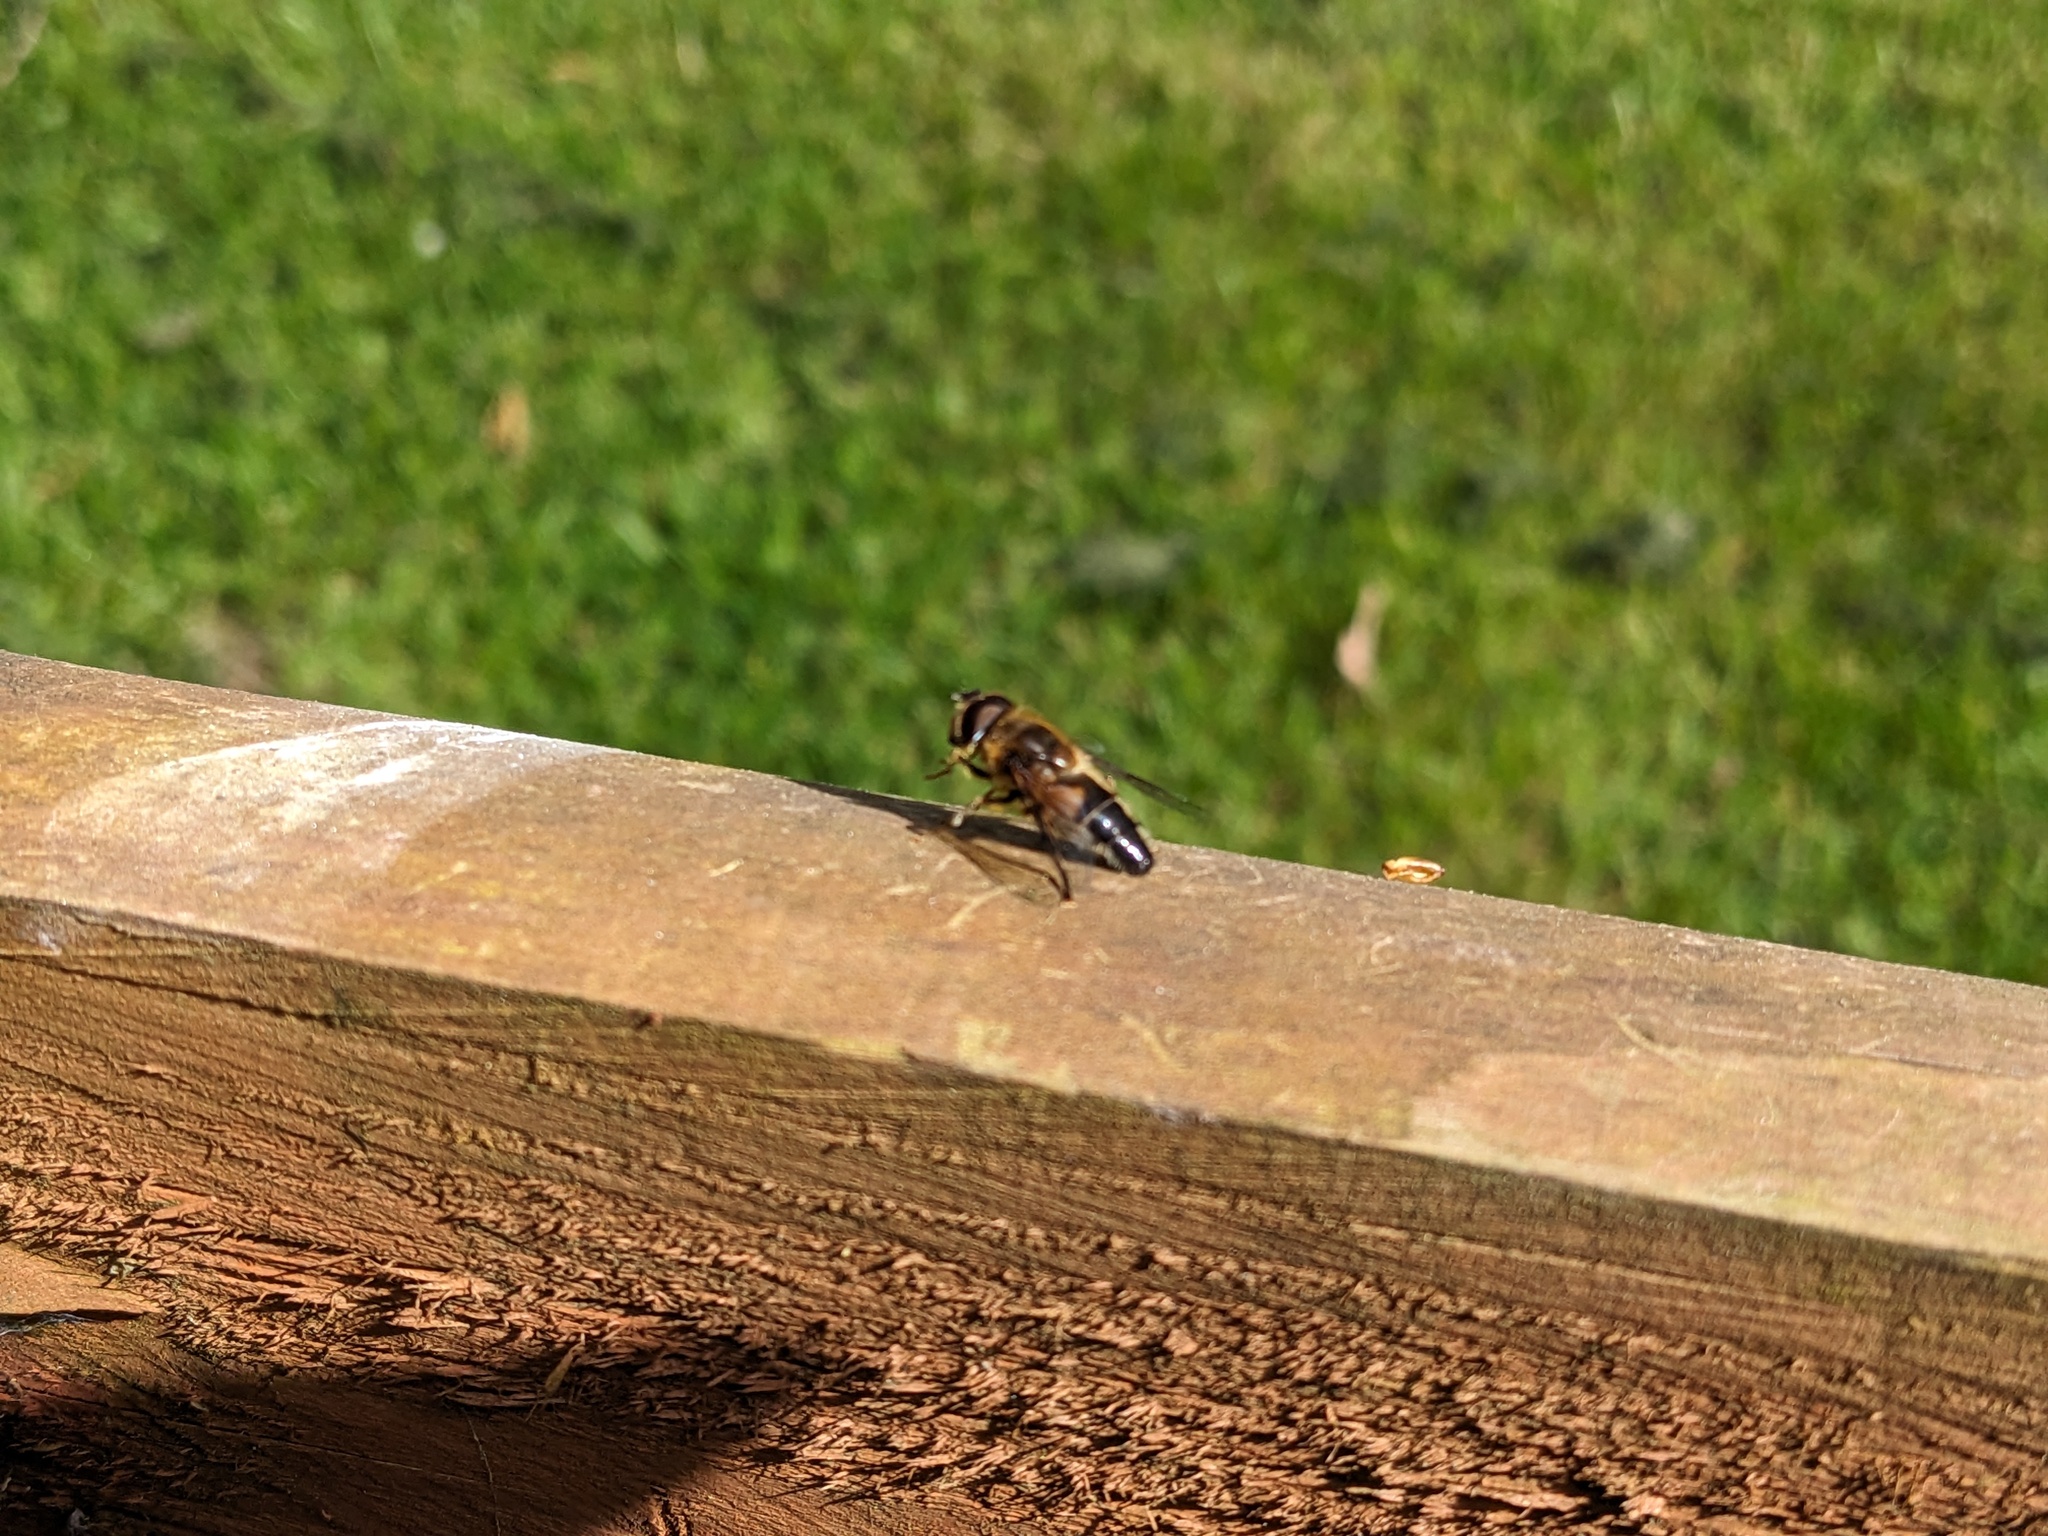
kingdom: Animalia
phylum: Arthropoda
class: Insecta
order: Diptera
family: Syrphidae
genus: Eristalis
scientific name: Eristalis pertinax
